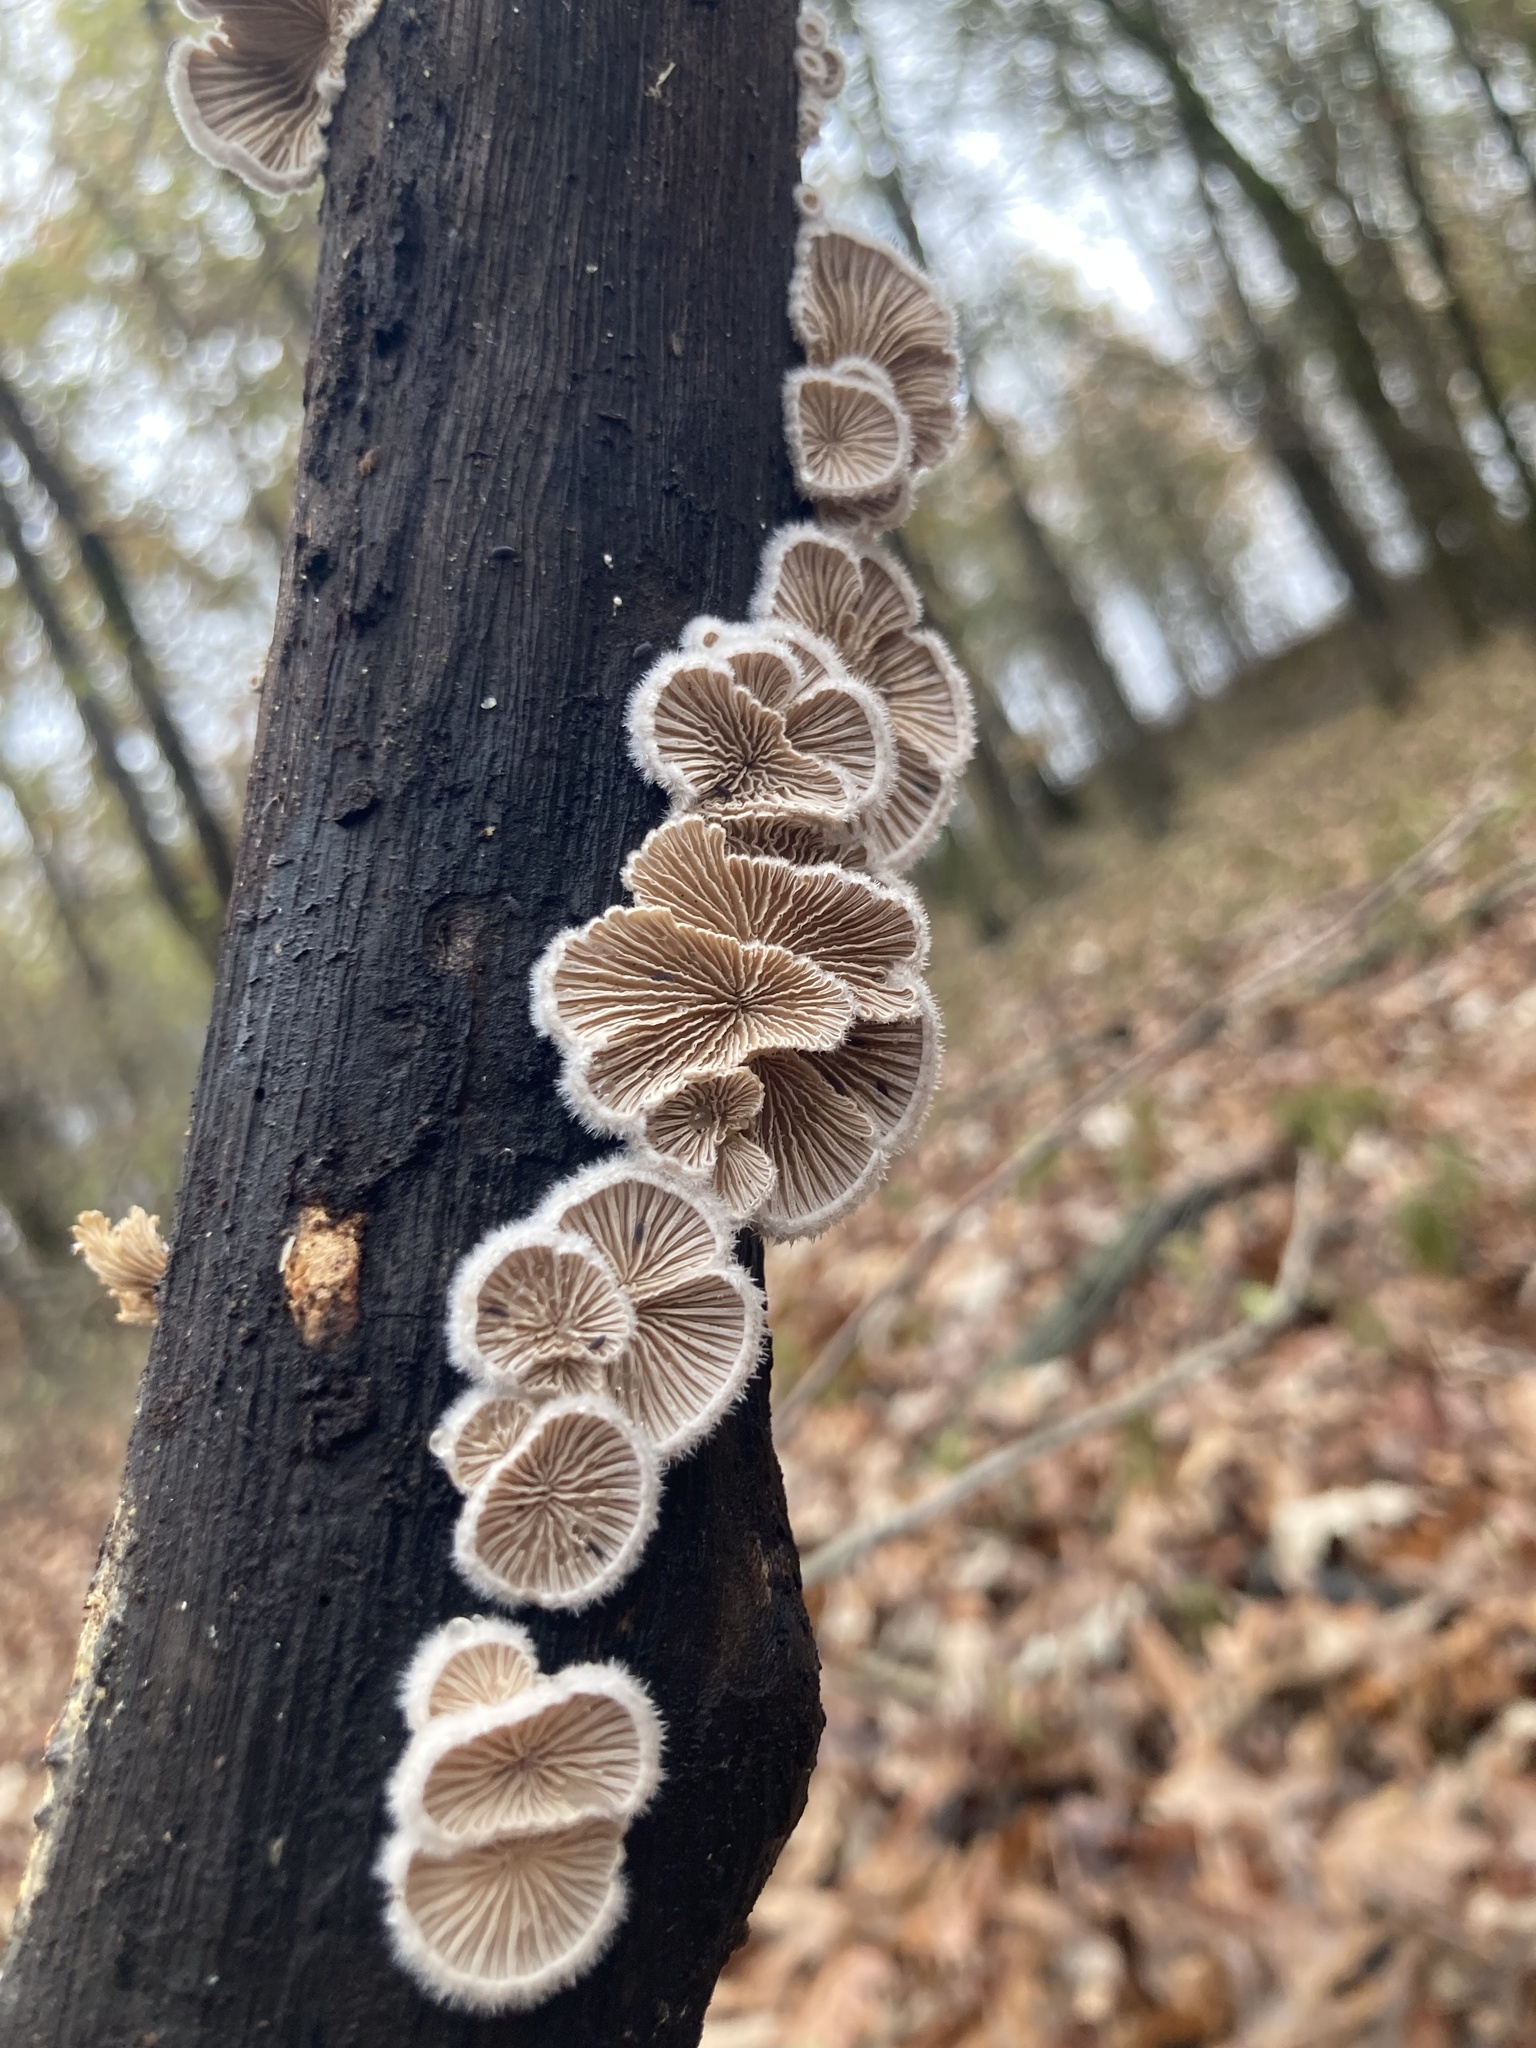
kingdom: Fungi
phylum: Basidiomycota
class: Agaricomycetes
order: Agaricales
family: Schizophyllaceae
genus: Schizophyllum
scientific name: Schizophyllum commune
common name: Common porecrust
